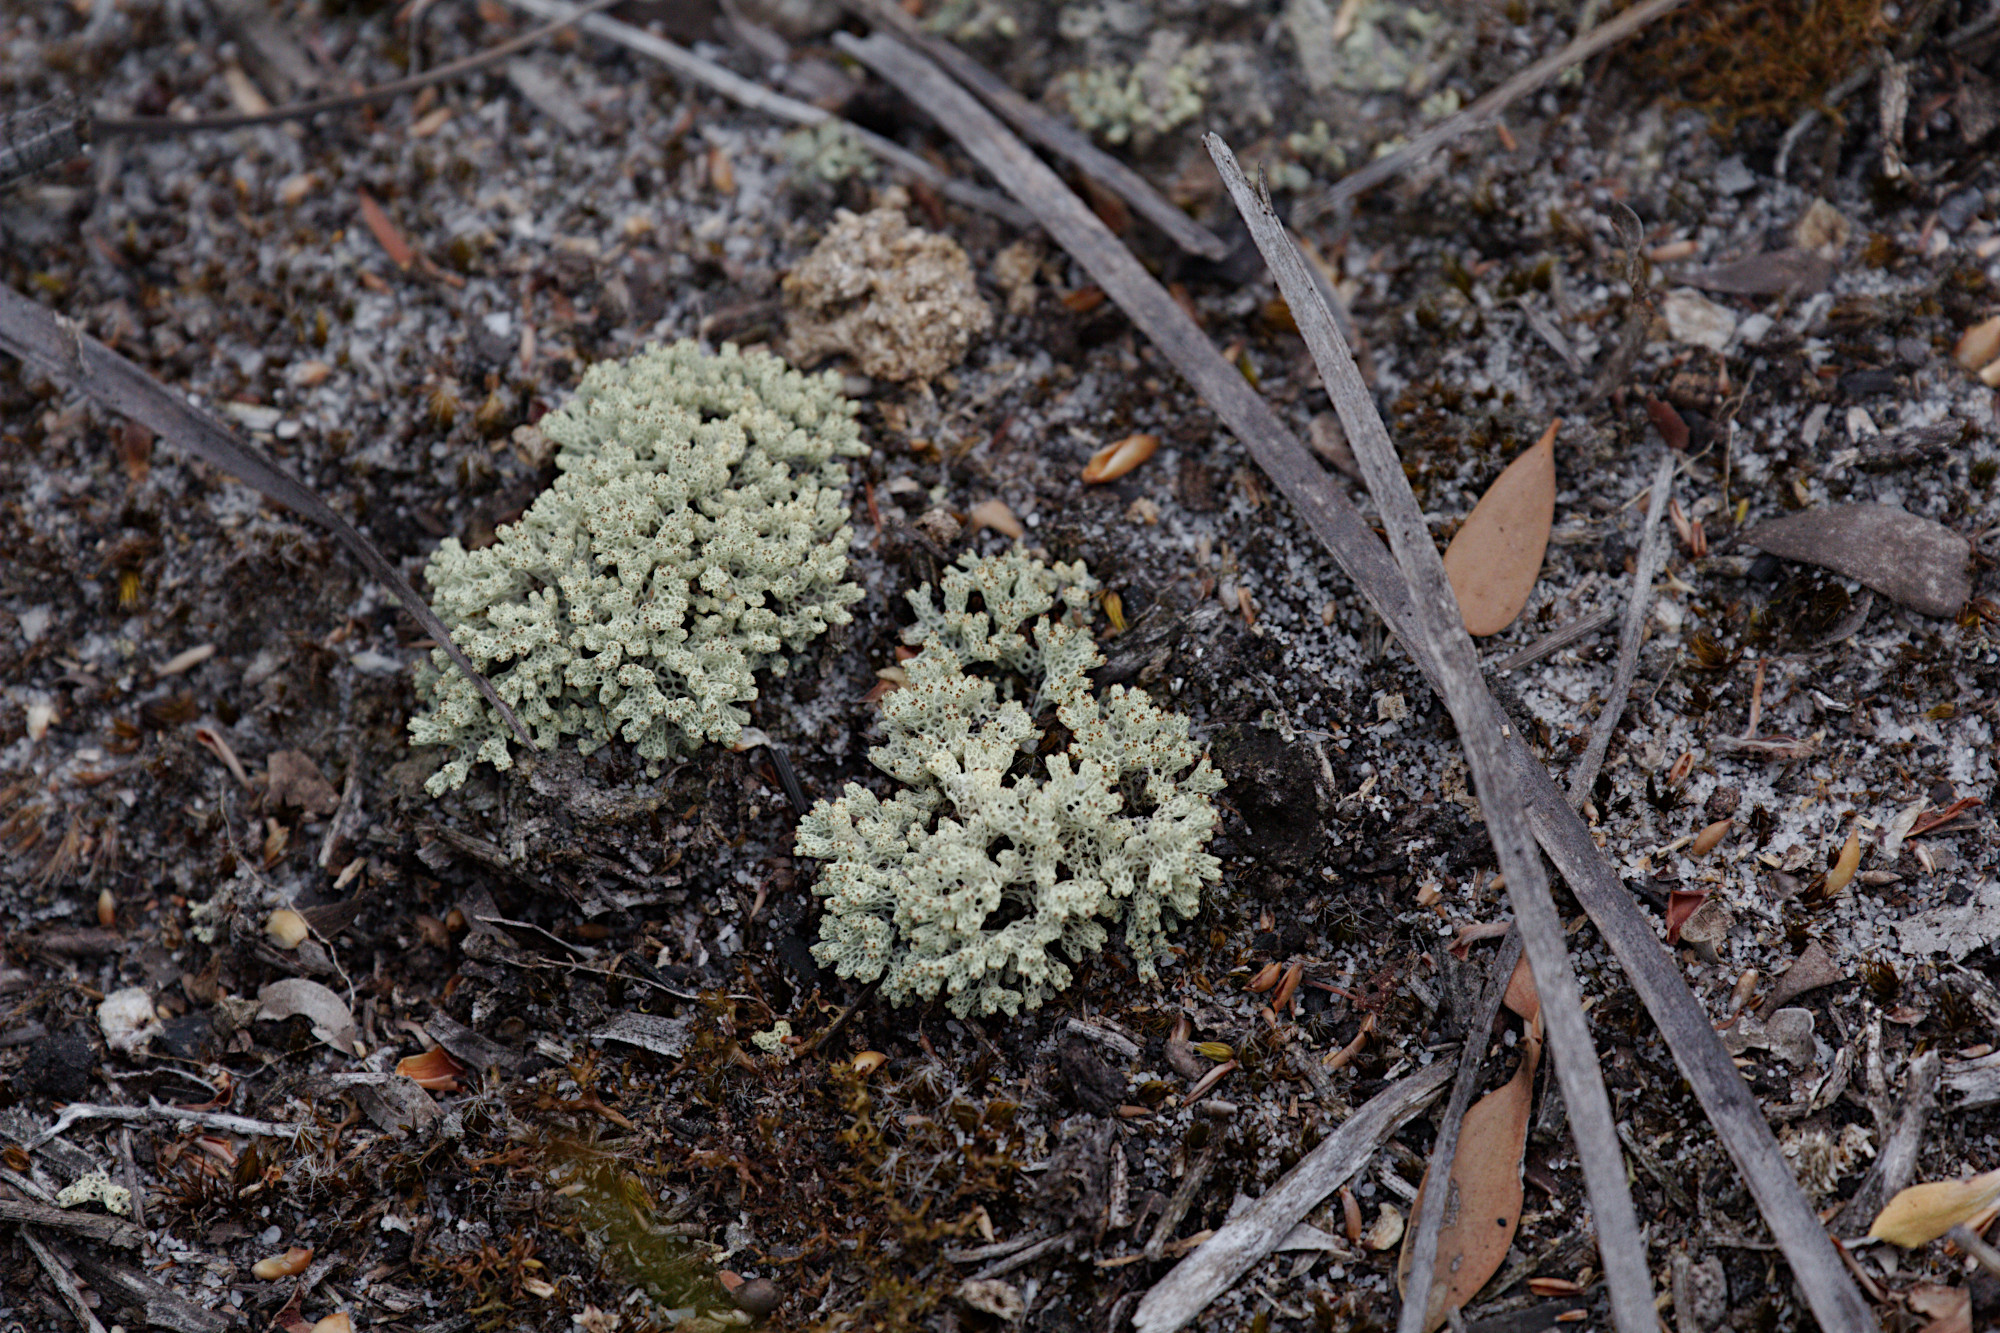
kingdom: Fungi
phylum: Ascomycota
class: Lecanoromycetes
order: Lecanorales
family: Cladoniaceae
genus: Pulchrocladia
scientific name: Pulchrocladia retipora
